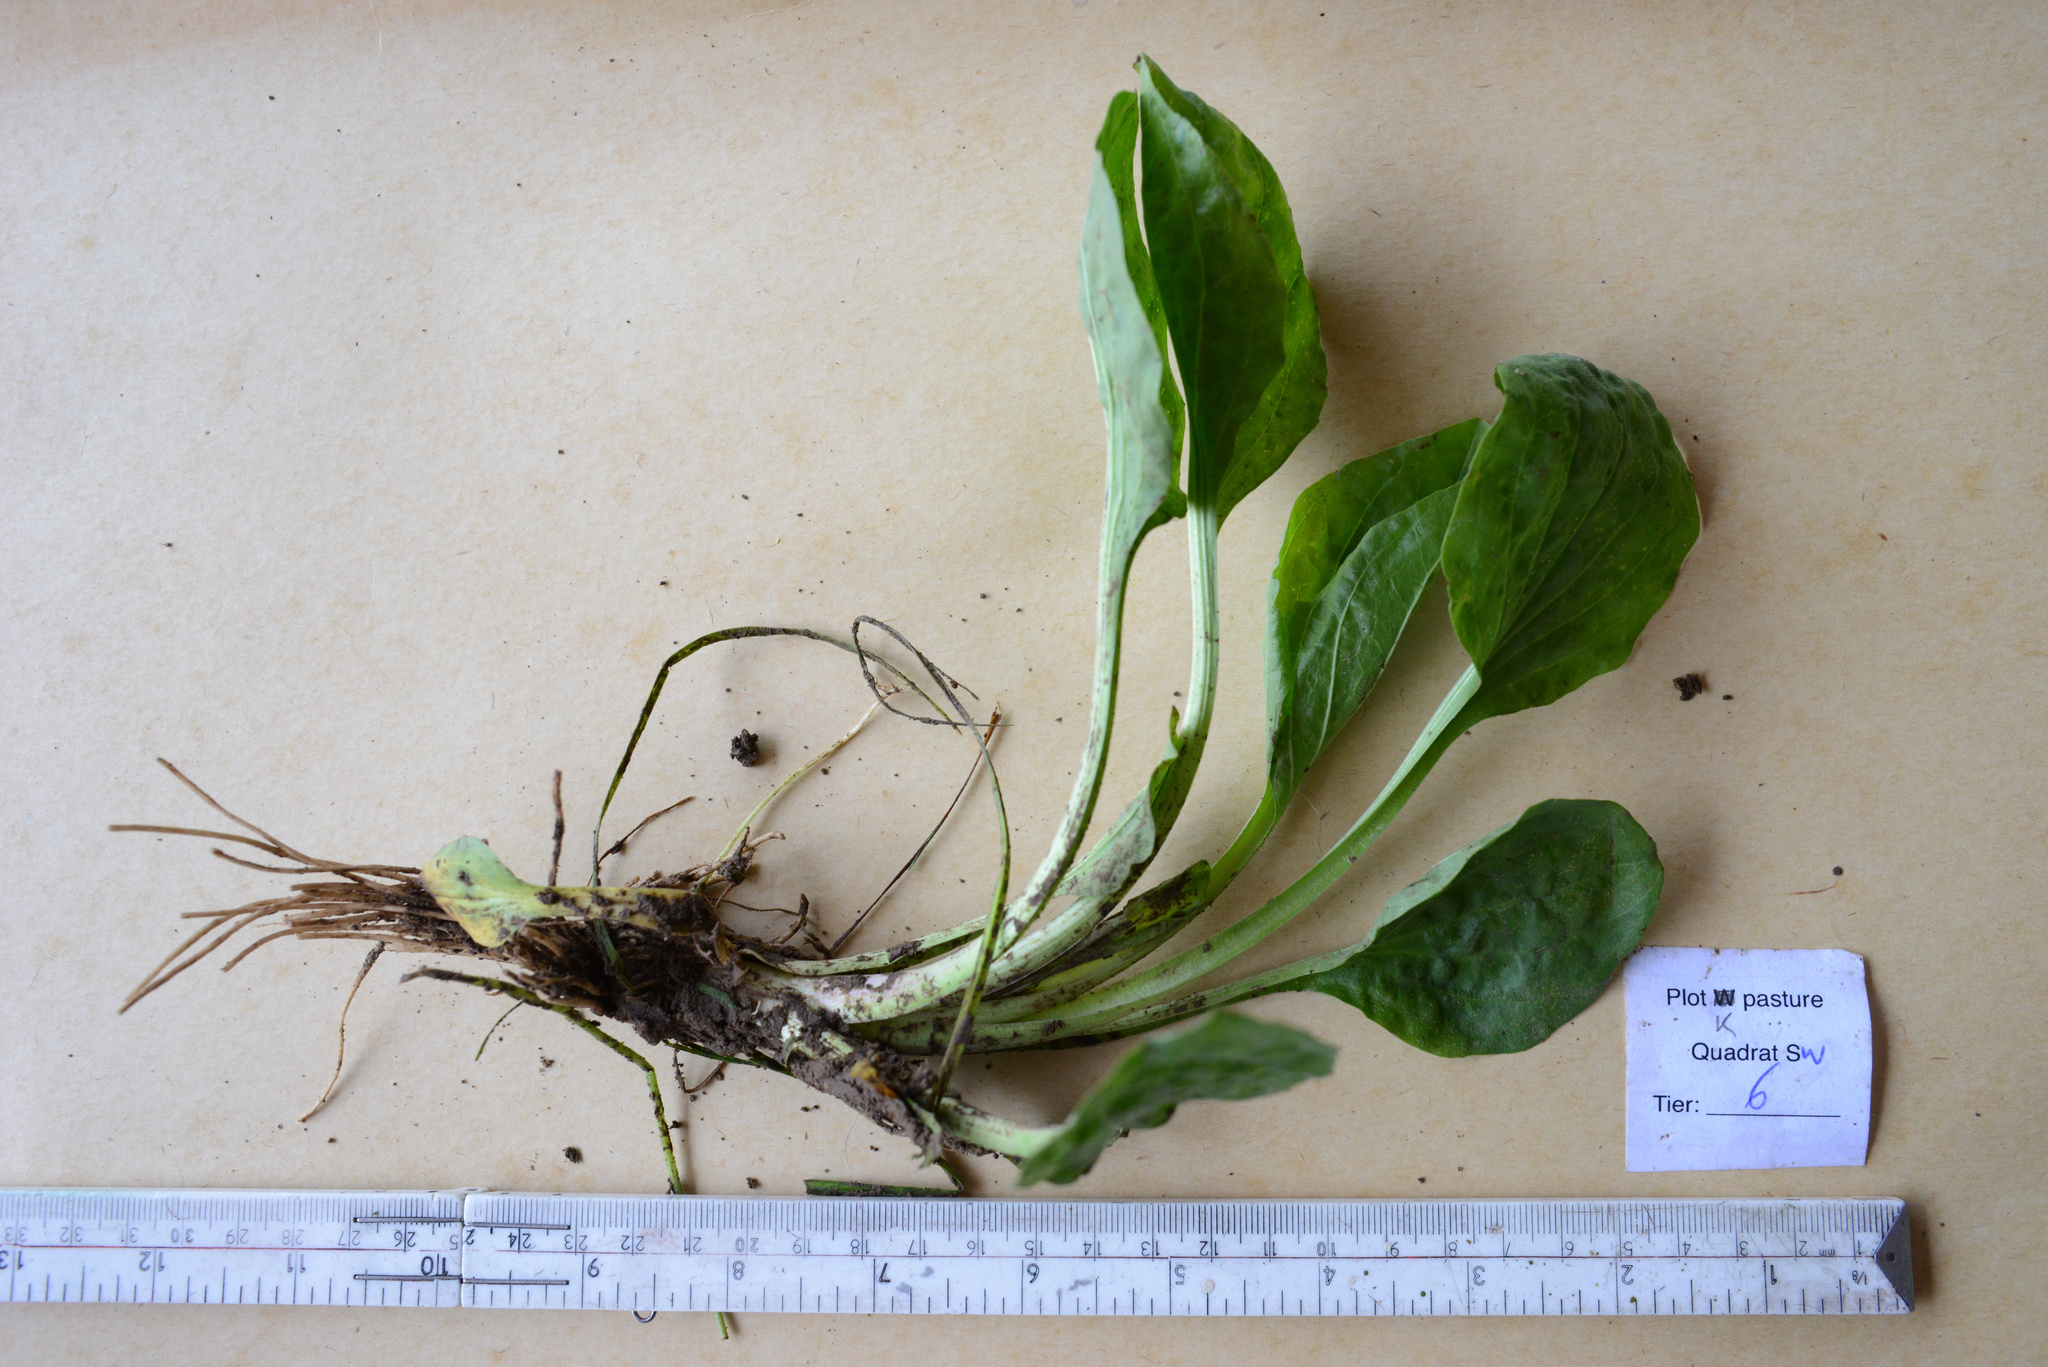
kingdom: Plantae
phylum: Tracheophyta
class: Magnoliopsida
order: Lamiales
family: Plantaginaceae
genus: Plantago
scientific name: Plantago major
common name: Common plantain
